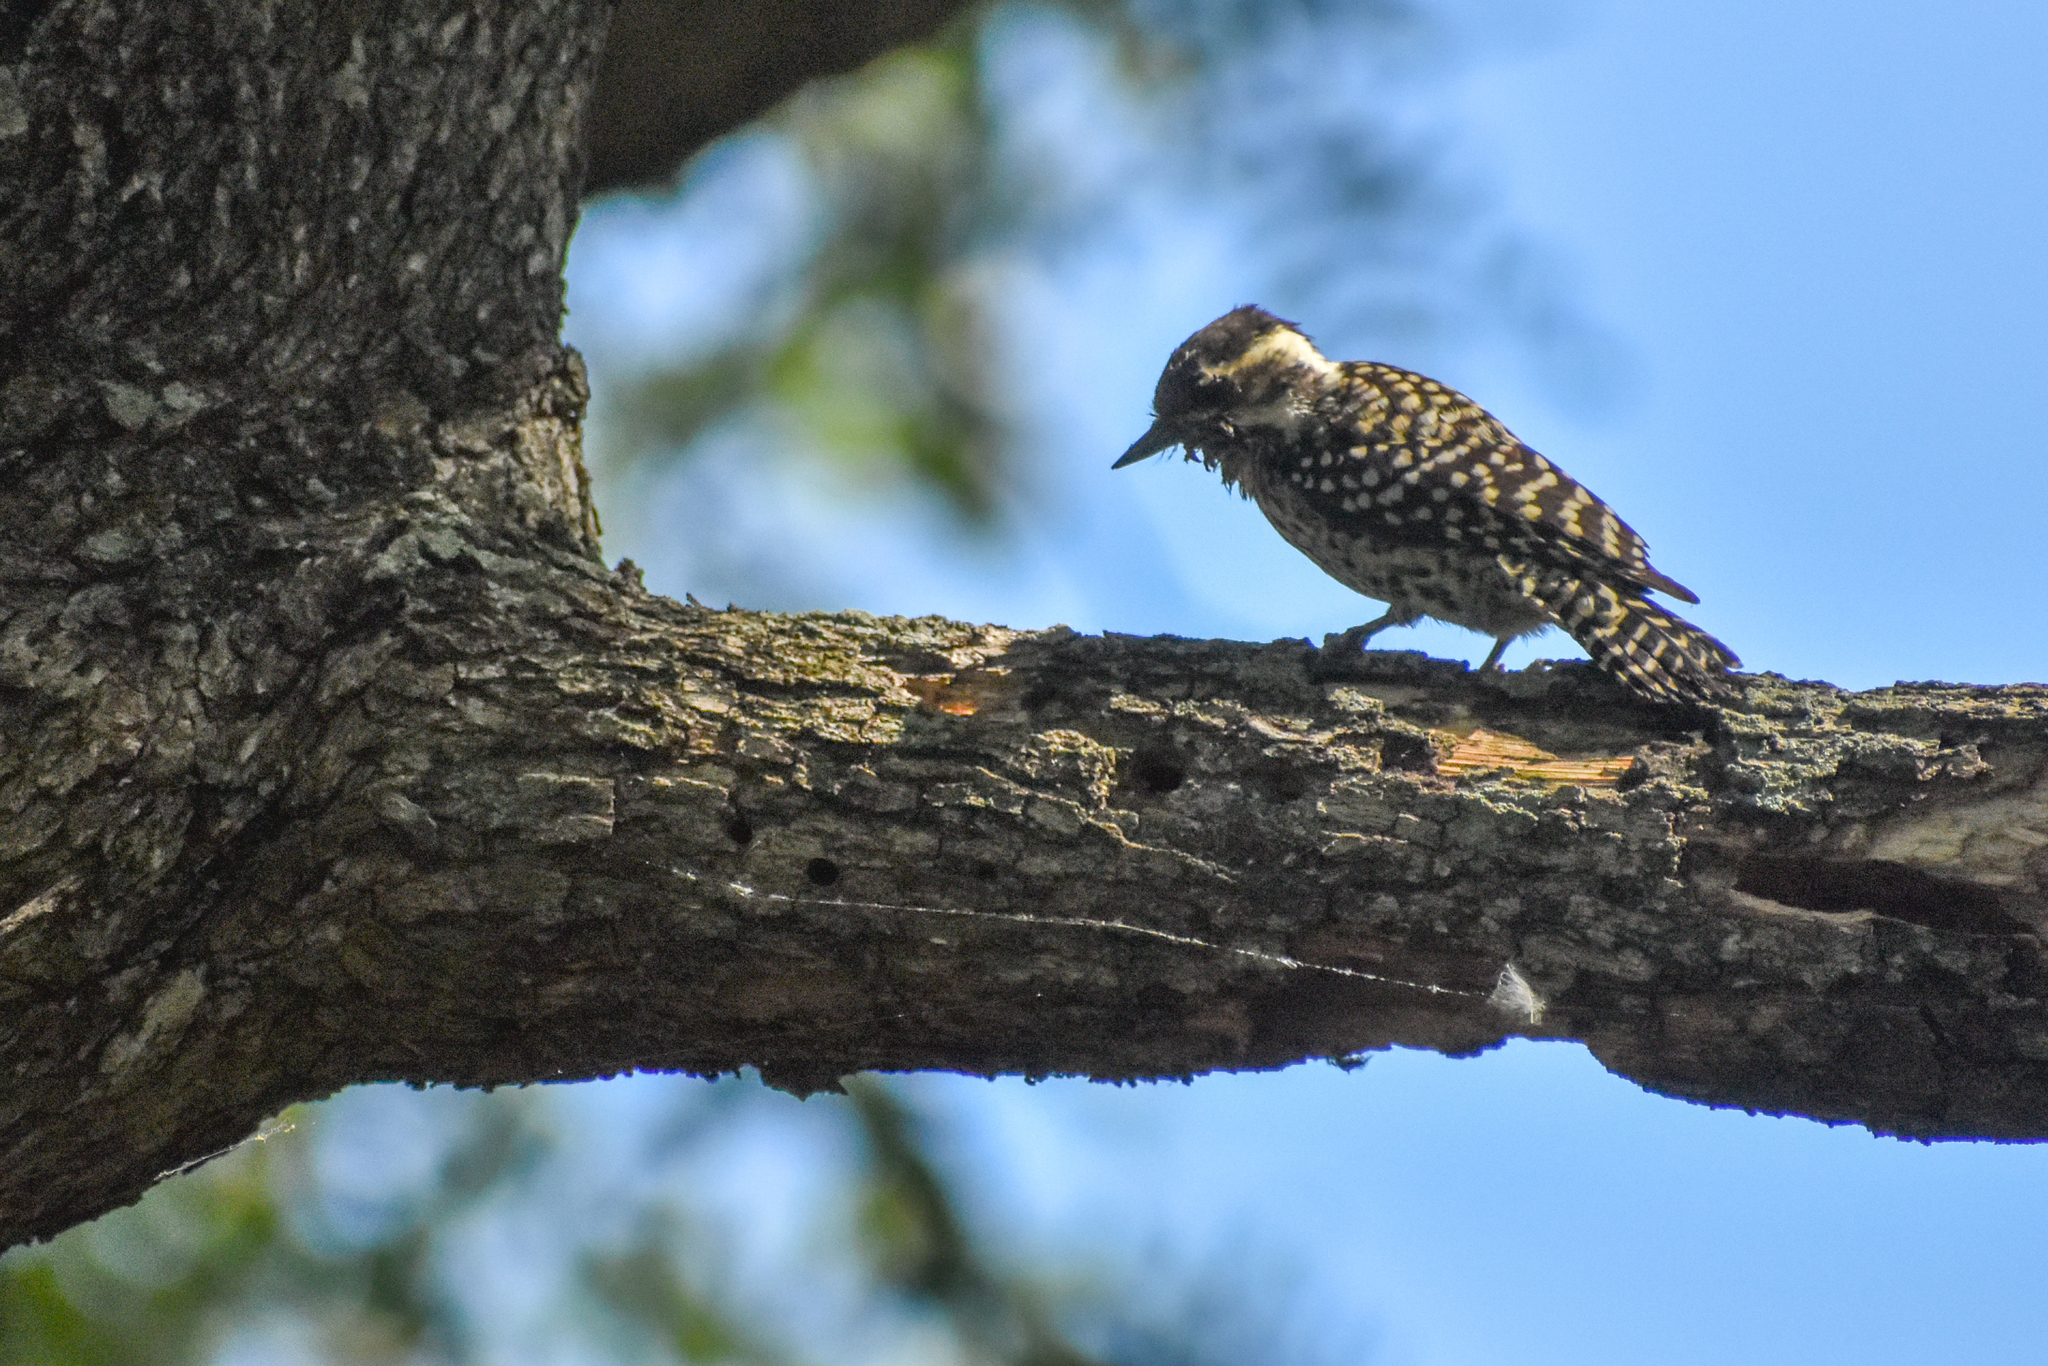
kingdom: Animalia
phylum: Chordata
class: Aves
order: Piciformes
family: Picidae
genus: Veniliornis
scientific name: Veniliornis mixtus
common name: Checkered woodpecker
